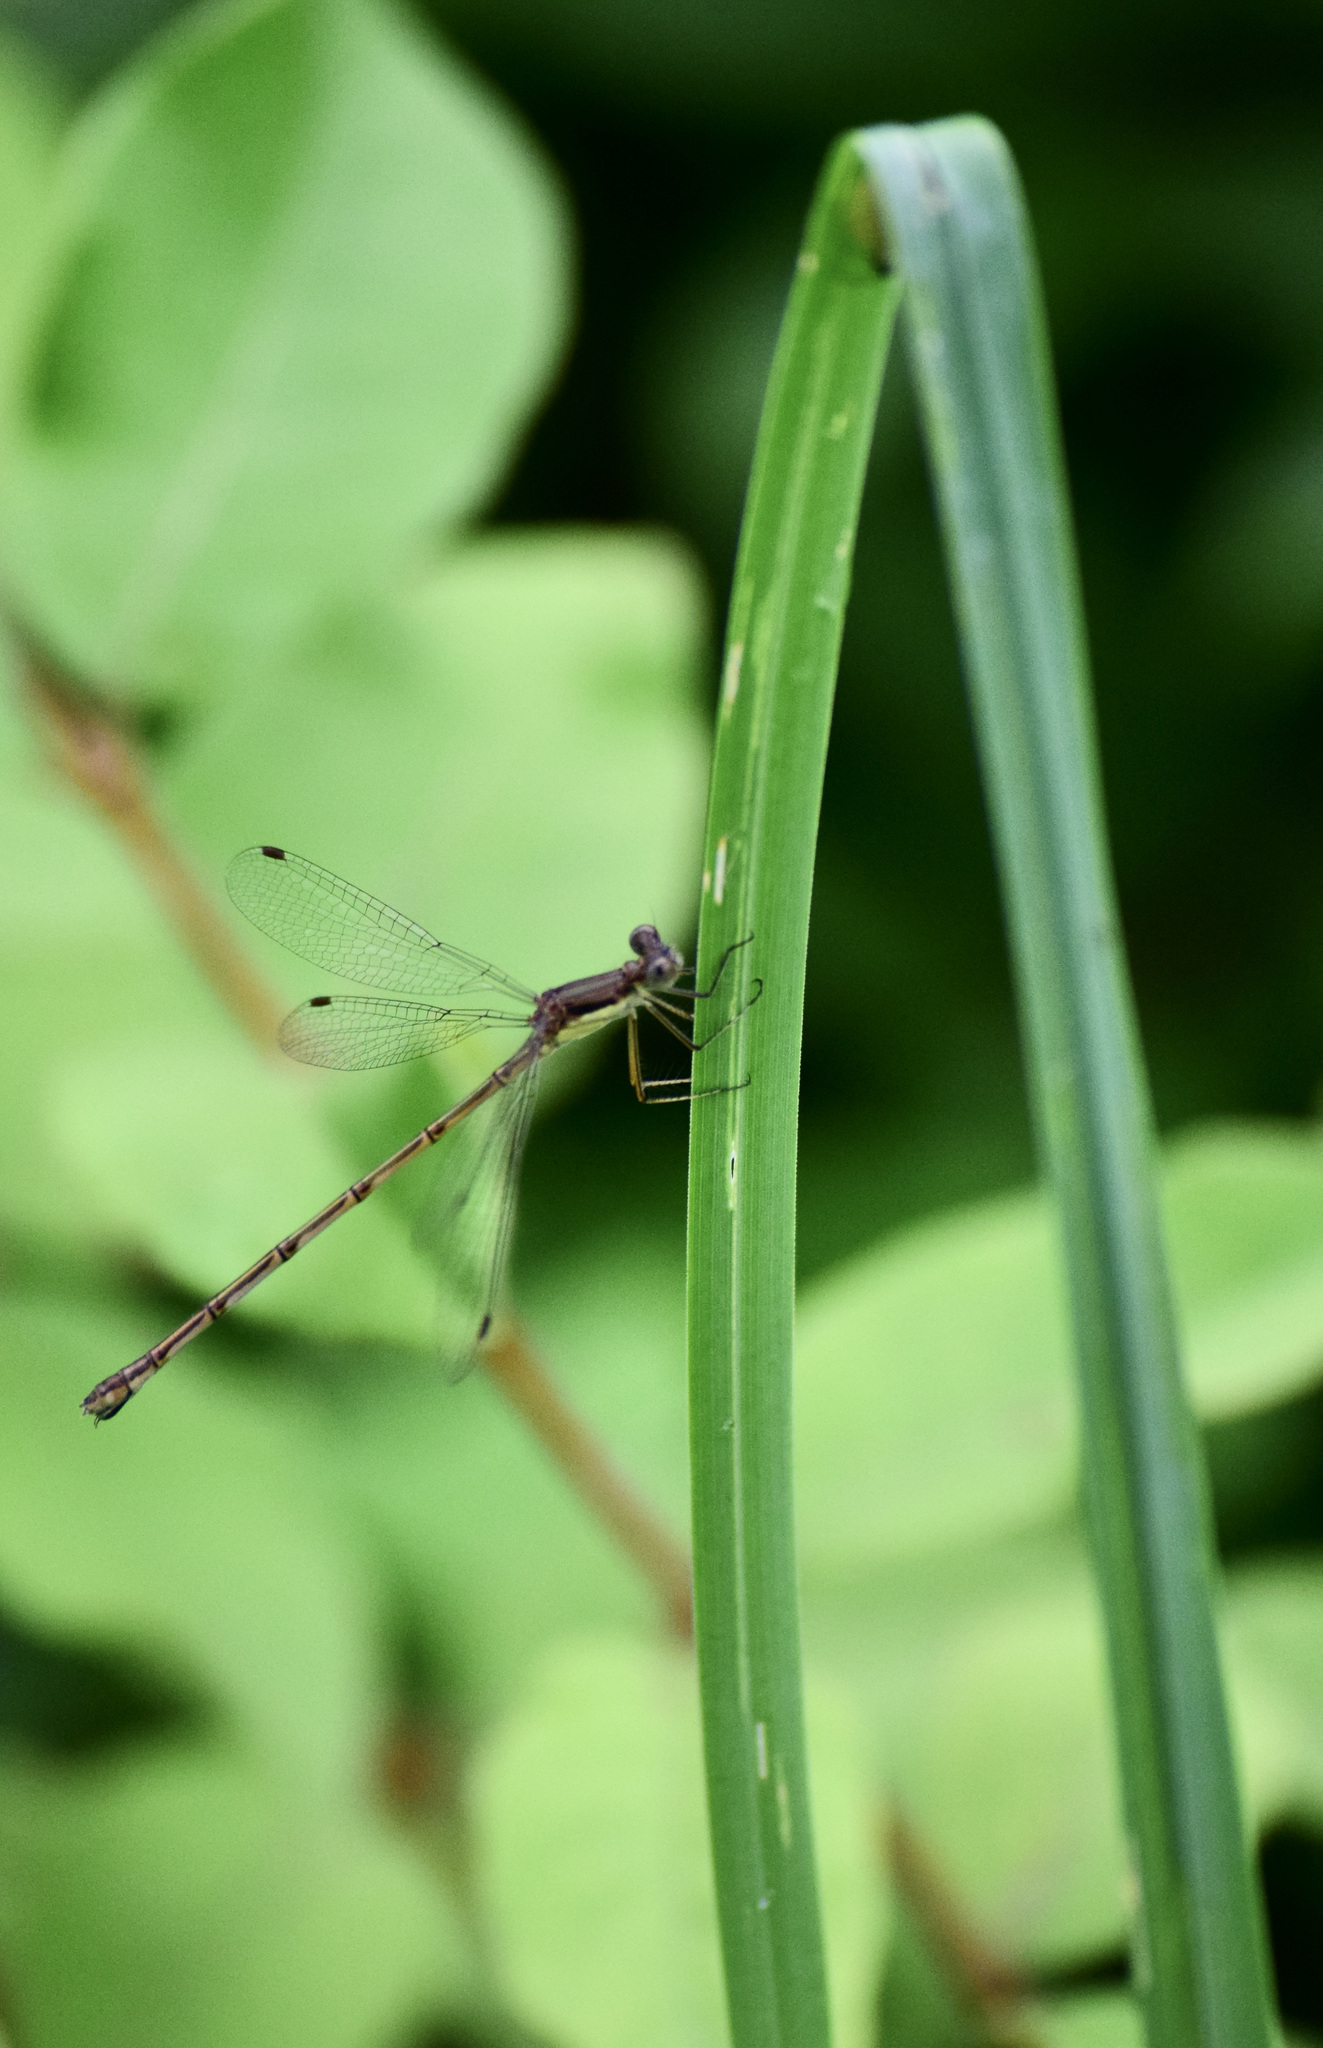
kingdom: Animalia
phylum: Arthropoda
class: Insecta
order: Odonata
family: Lestidae
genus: Lestes
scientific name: Lestes rectangularis
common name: Slender spreadwing
